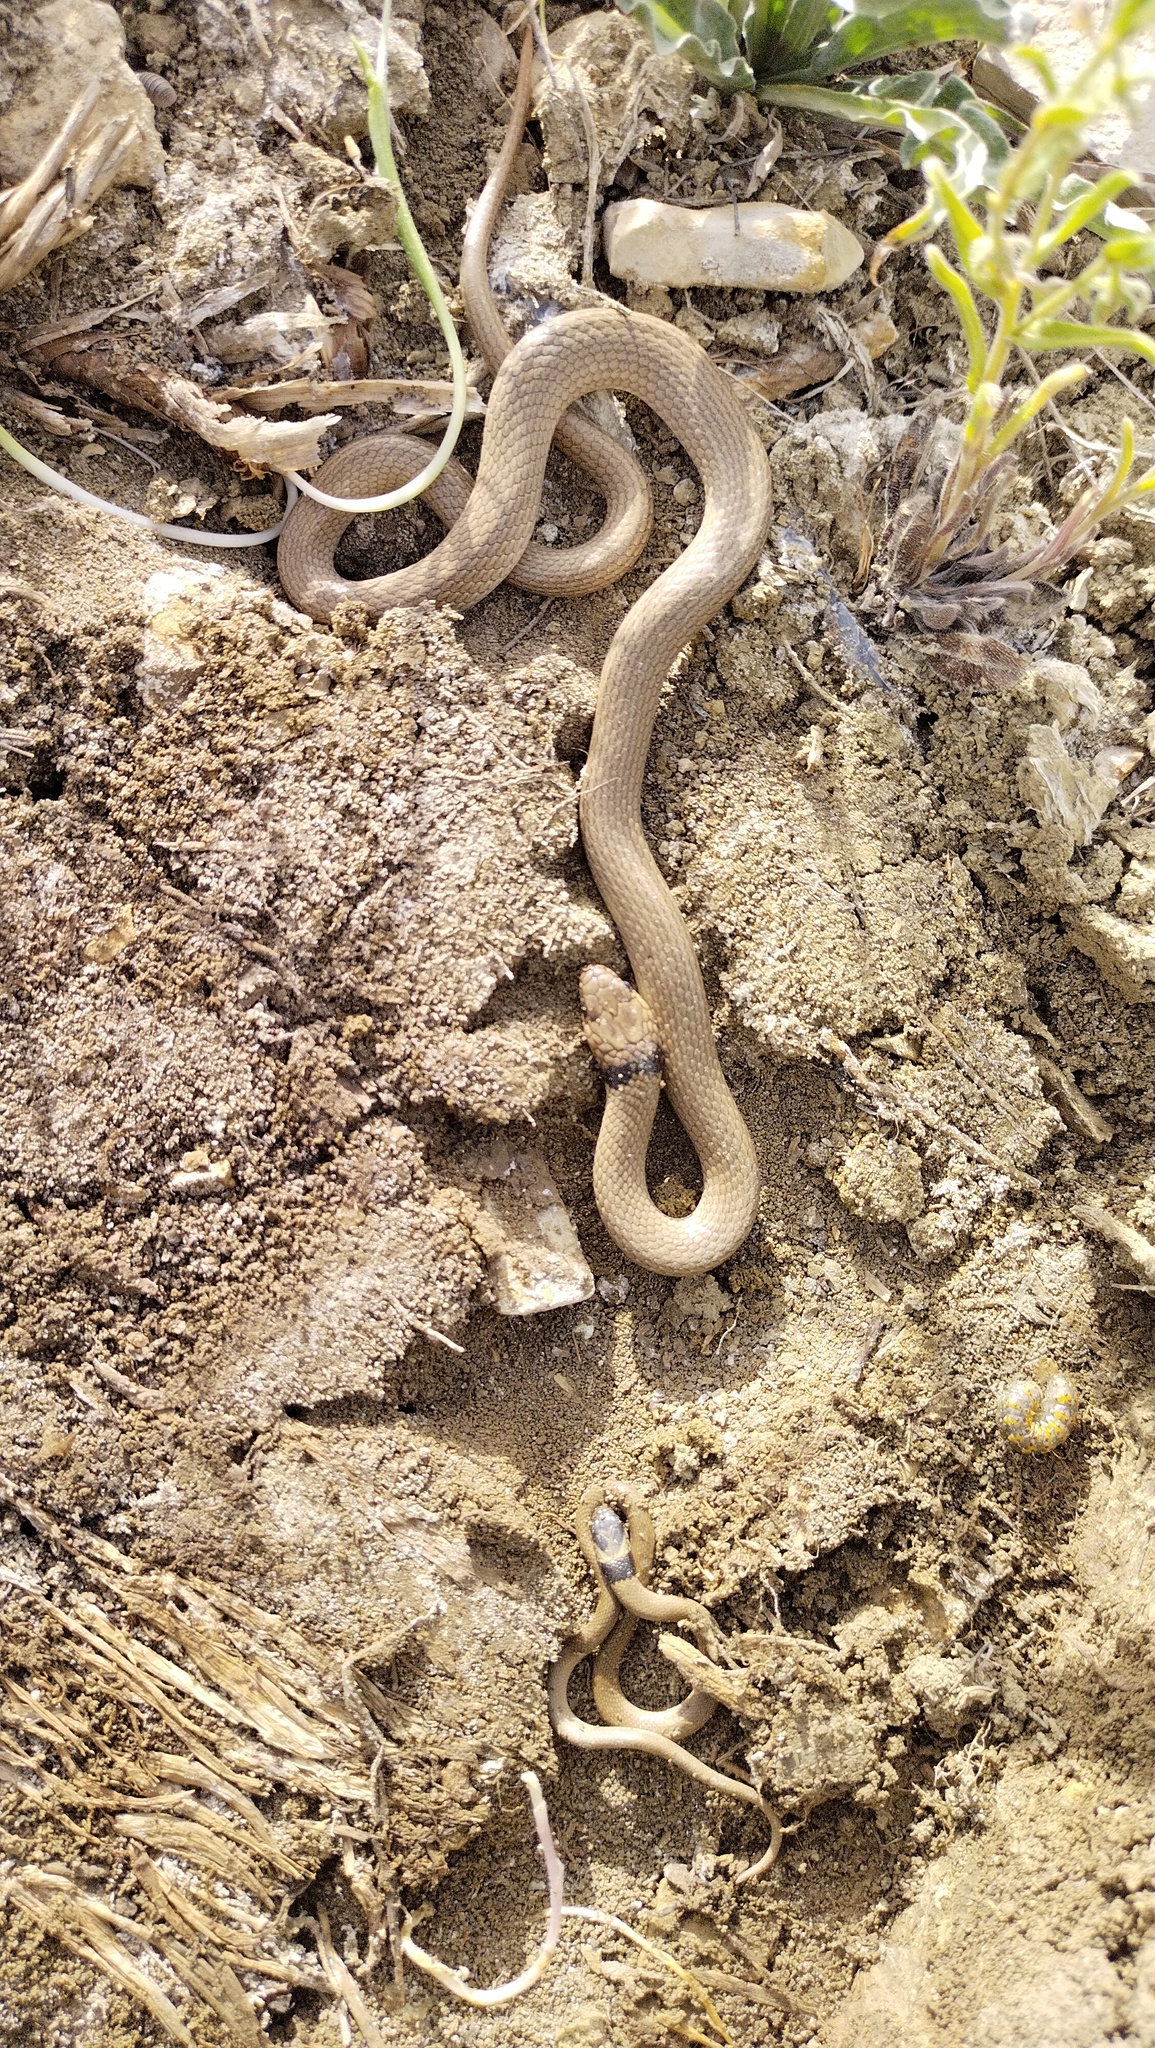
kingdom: Animalia
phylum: Chordata
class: Squamata
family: Colubridae
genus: Eirenis
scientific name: Eirenis collaris
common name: Collared dwarf racer
